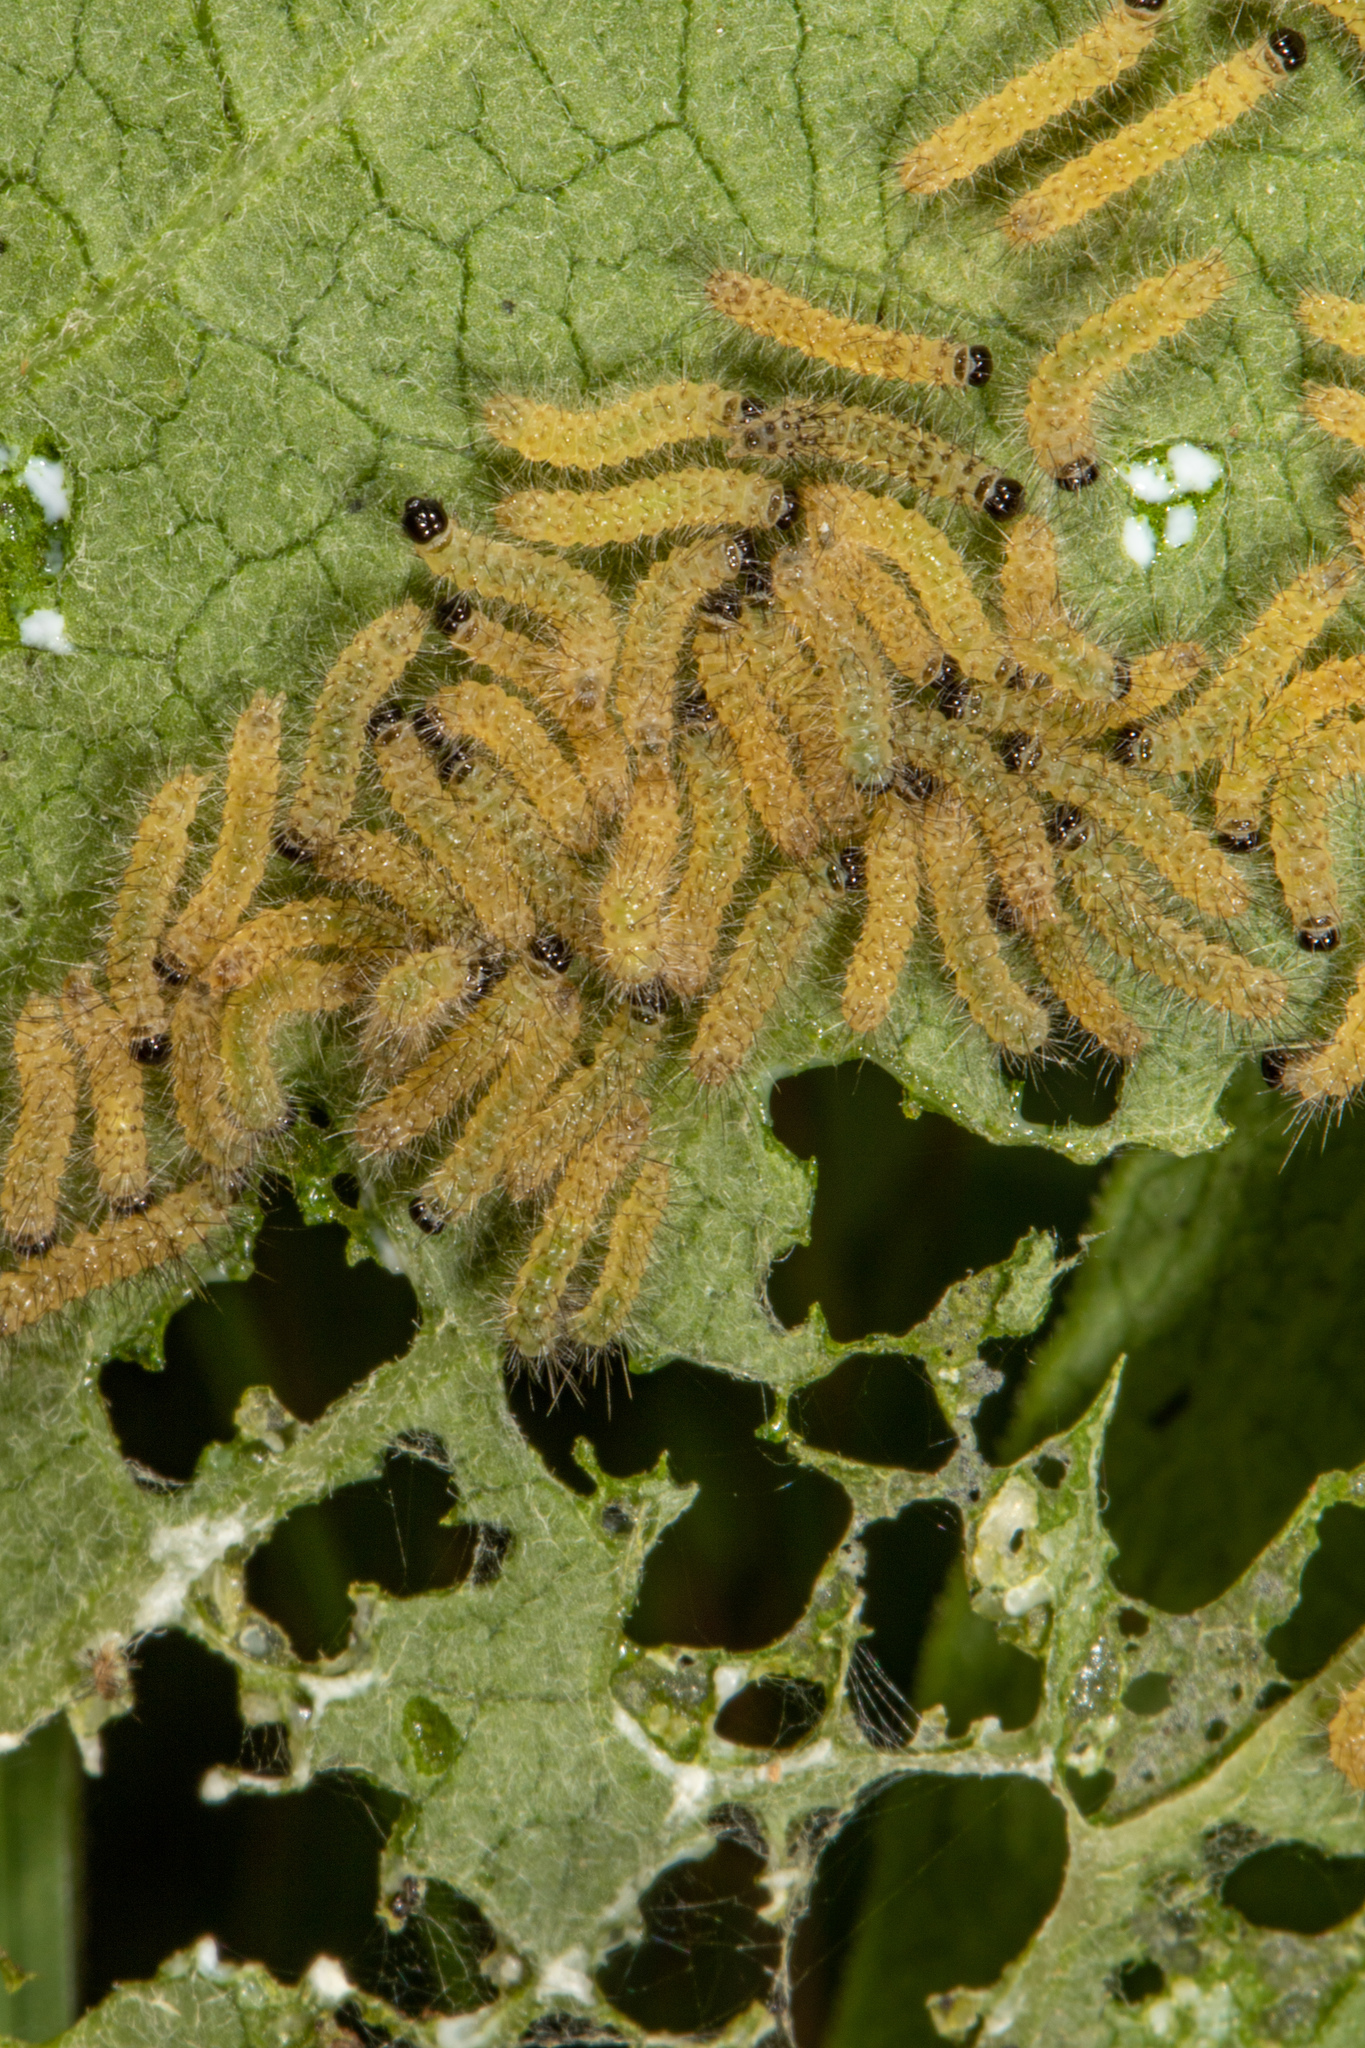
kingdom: Animalia
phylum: Arthropoda
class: Insecta
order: Lepidoptera
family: Erebidae
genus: Euchaetes
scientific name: Euchaetes egle
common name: Milkweed tussock moth
